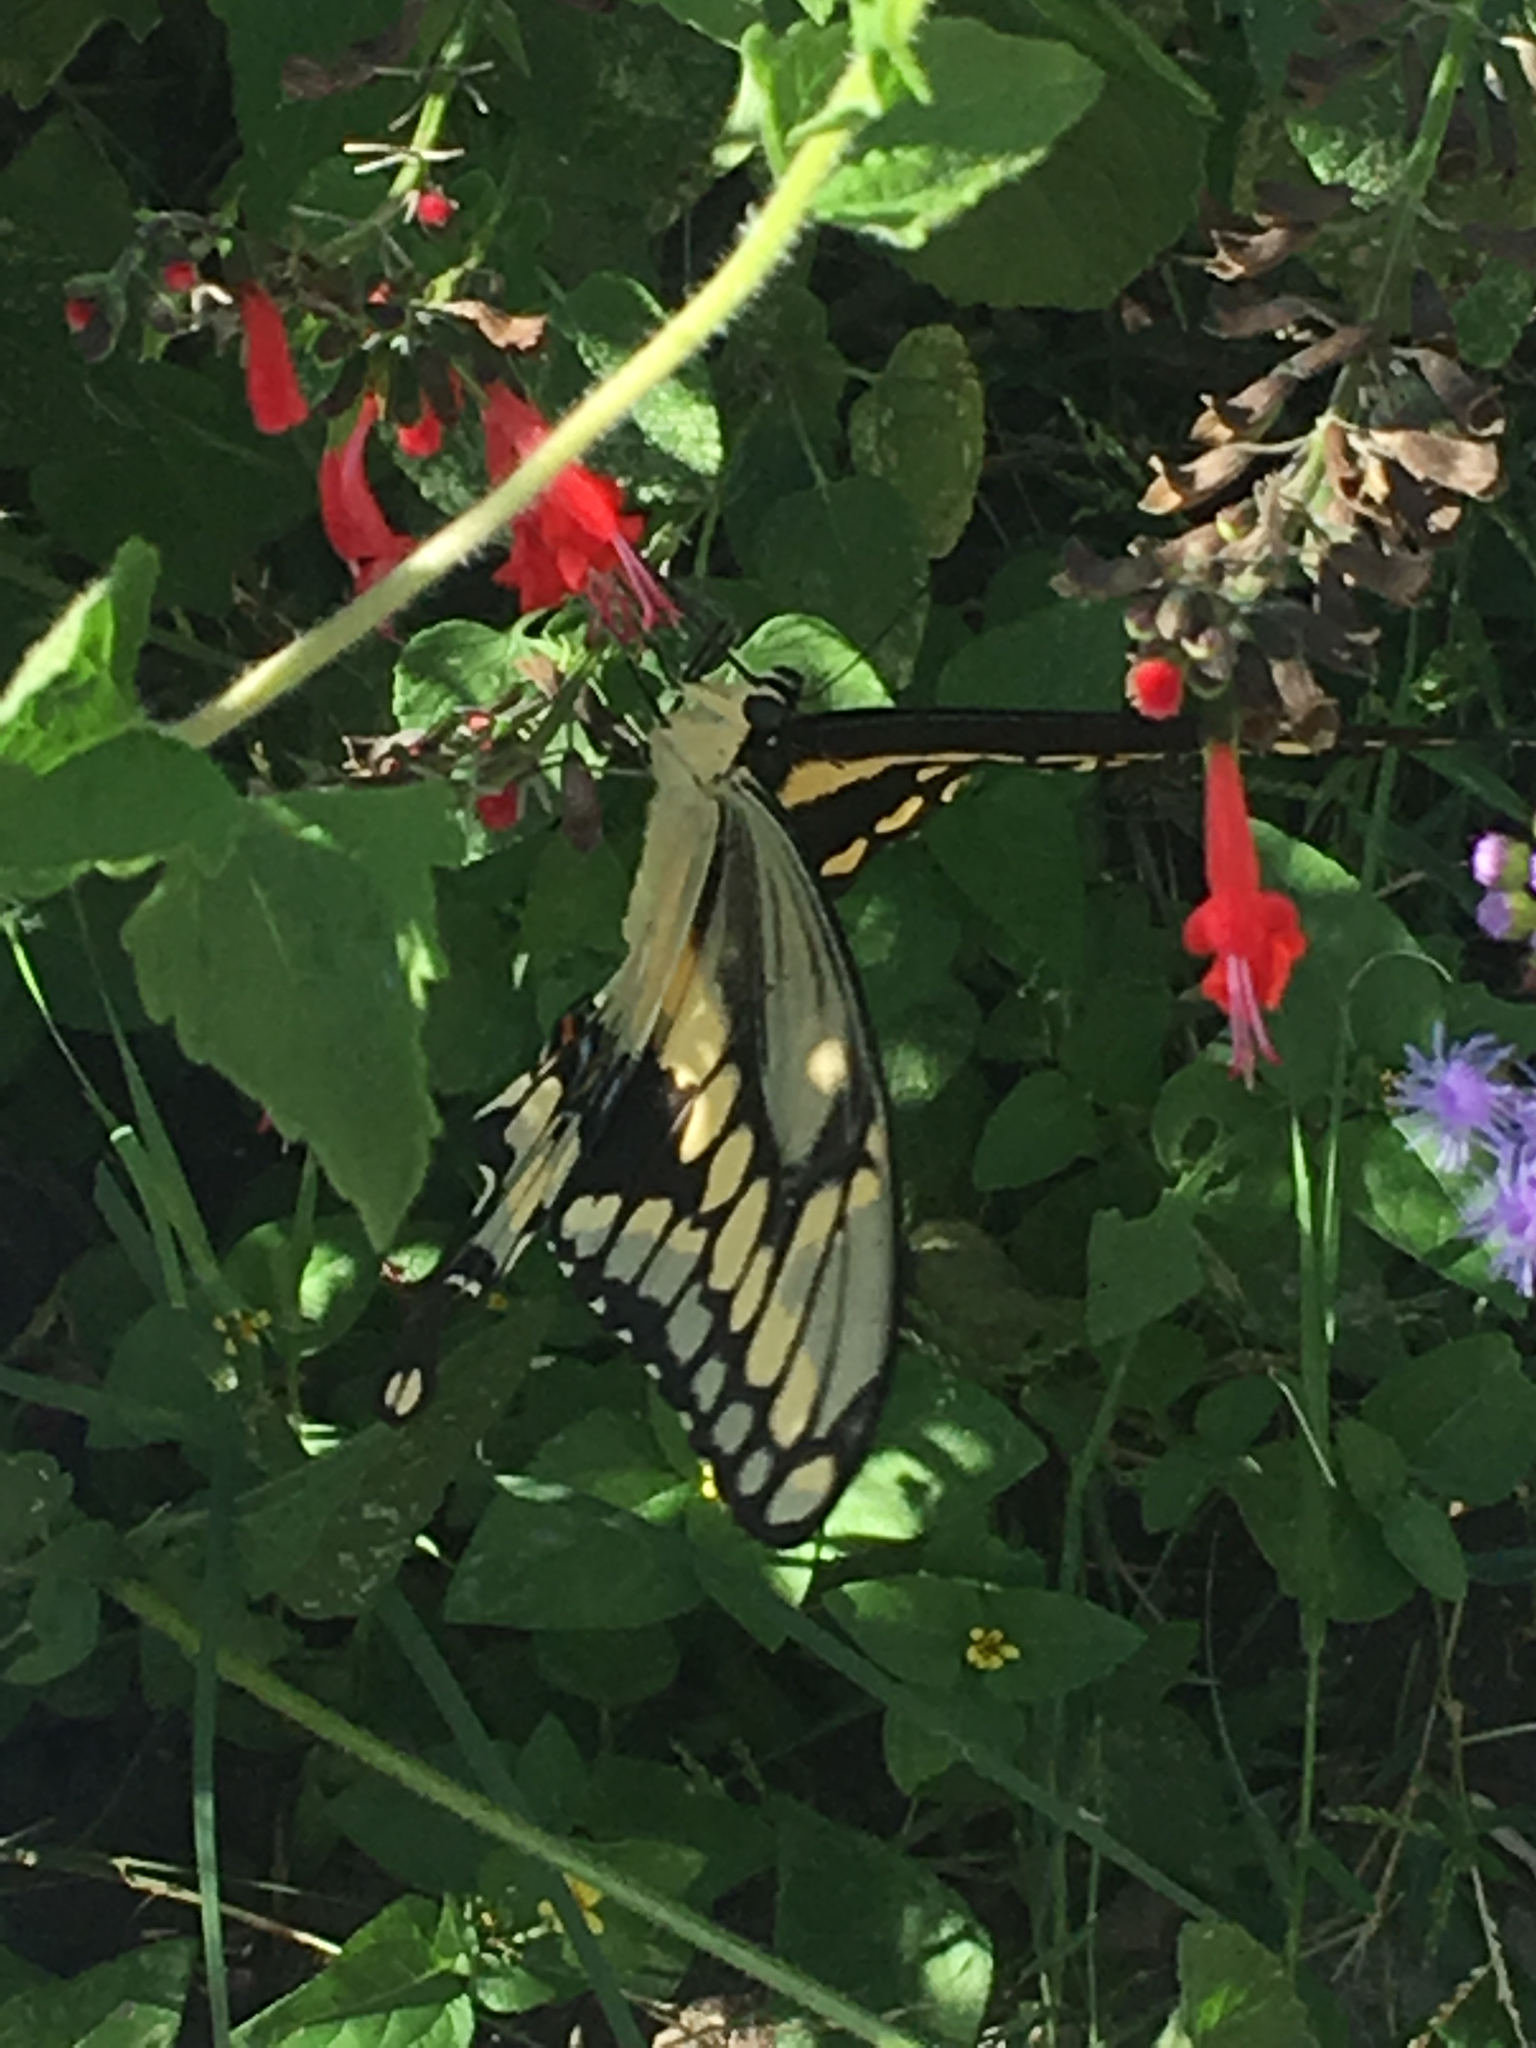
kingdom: Animalia
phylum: Arthropoda
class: Insecta
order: Lepidoptera
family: Papilionidae
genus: Papilio
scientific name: Papilio cresphontes
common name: Giant swallowtail
